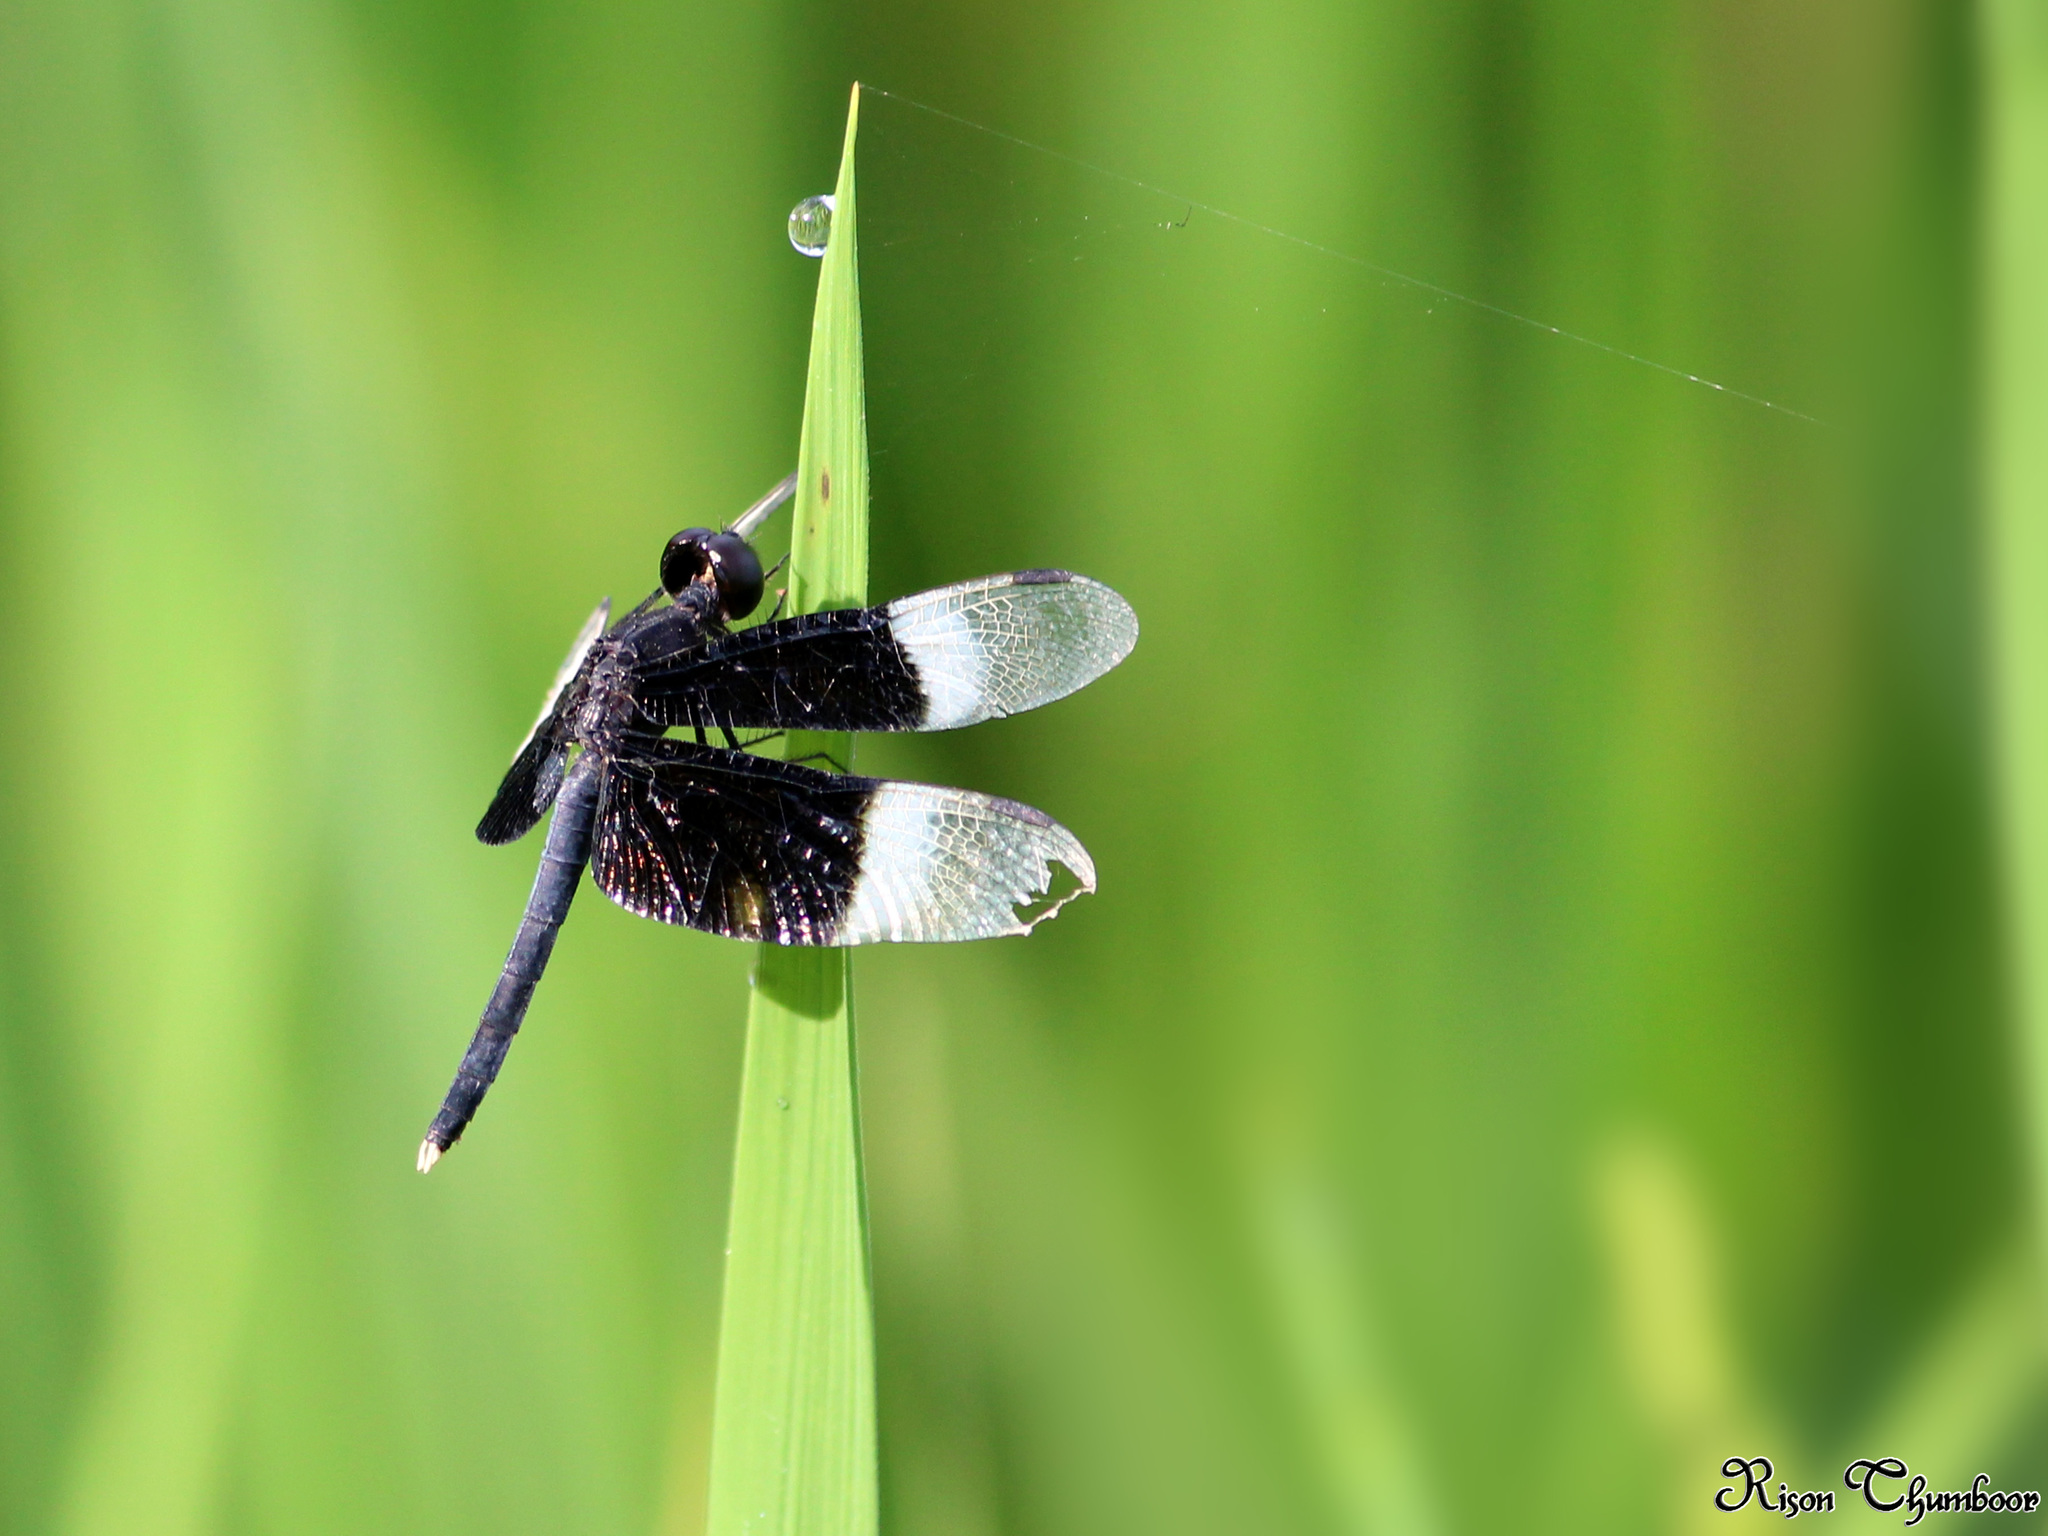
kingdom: Animalia
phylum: Arthropoda
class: Insecta
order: Odonata
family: Libellulidae
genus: Neurothemis
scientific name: Neurothemis tullia
